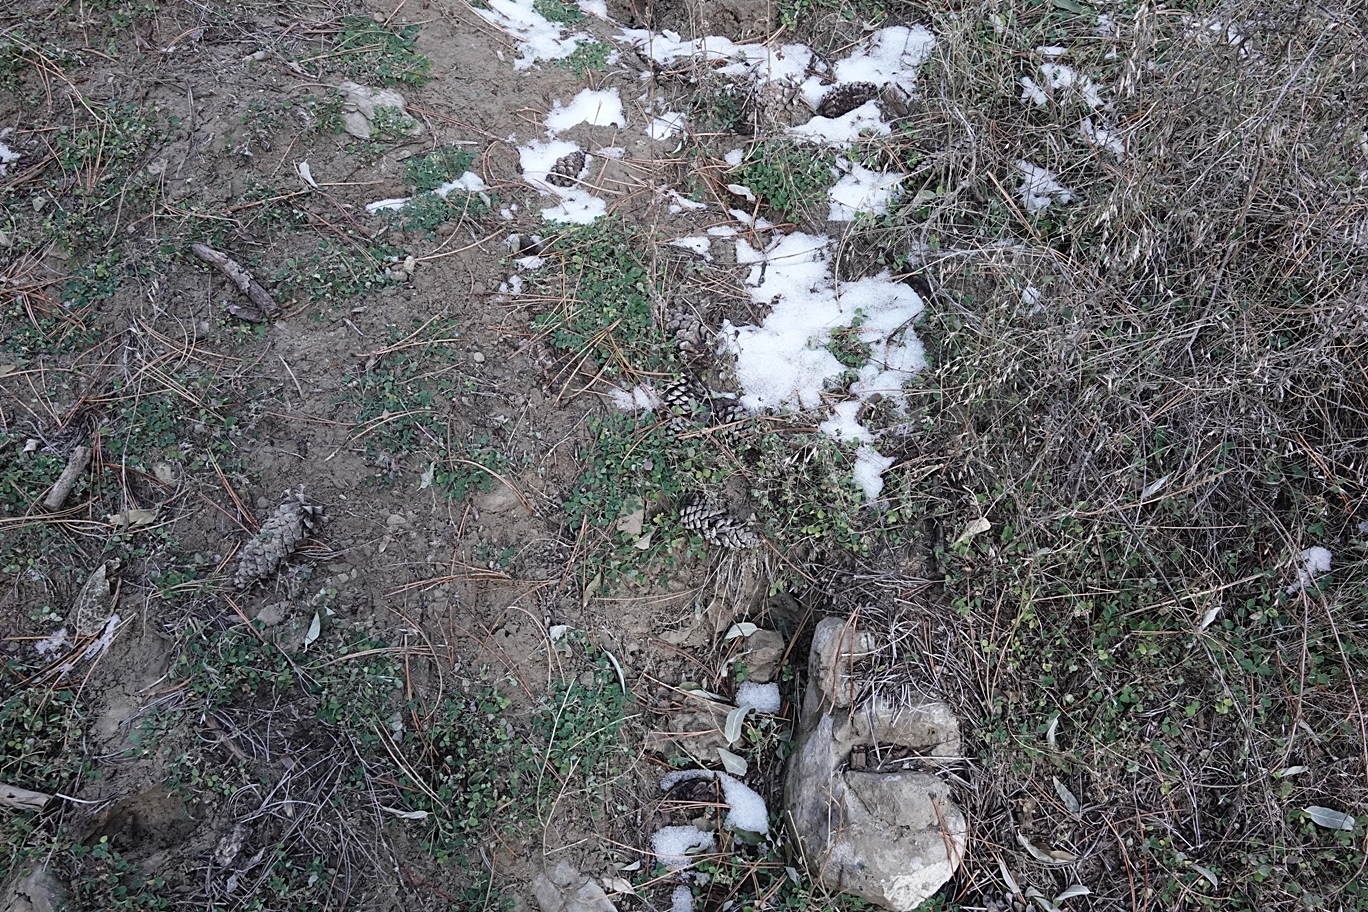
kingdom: Plantae
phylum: Tracheophyta
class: Magnoliopsida
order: Fabales
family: Fabaceae
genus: Medicago
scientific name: Medicago lupulina
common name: Black medick
